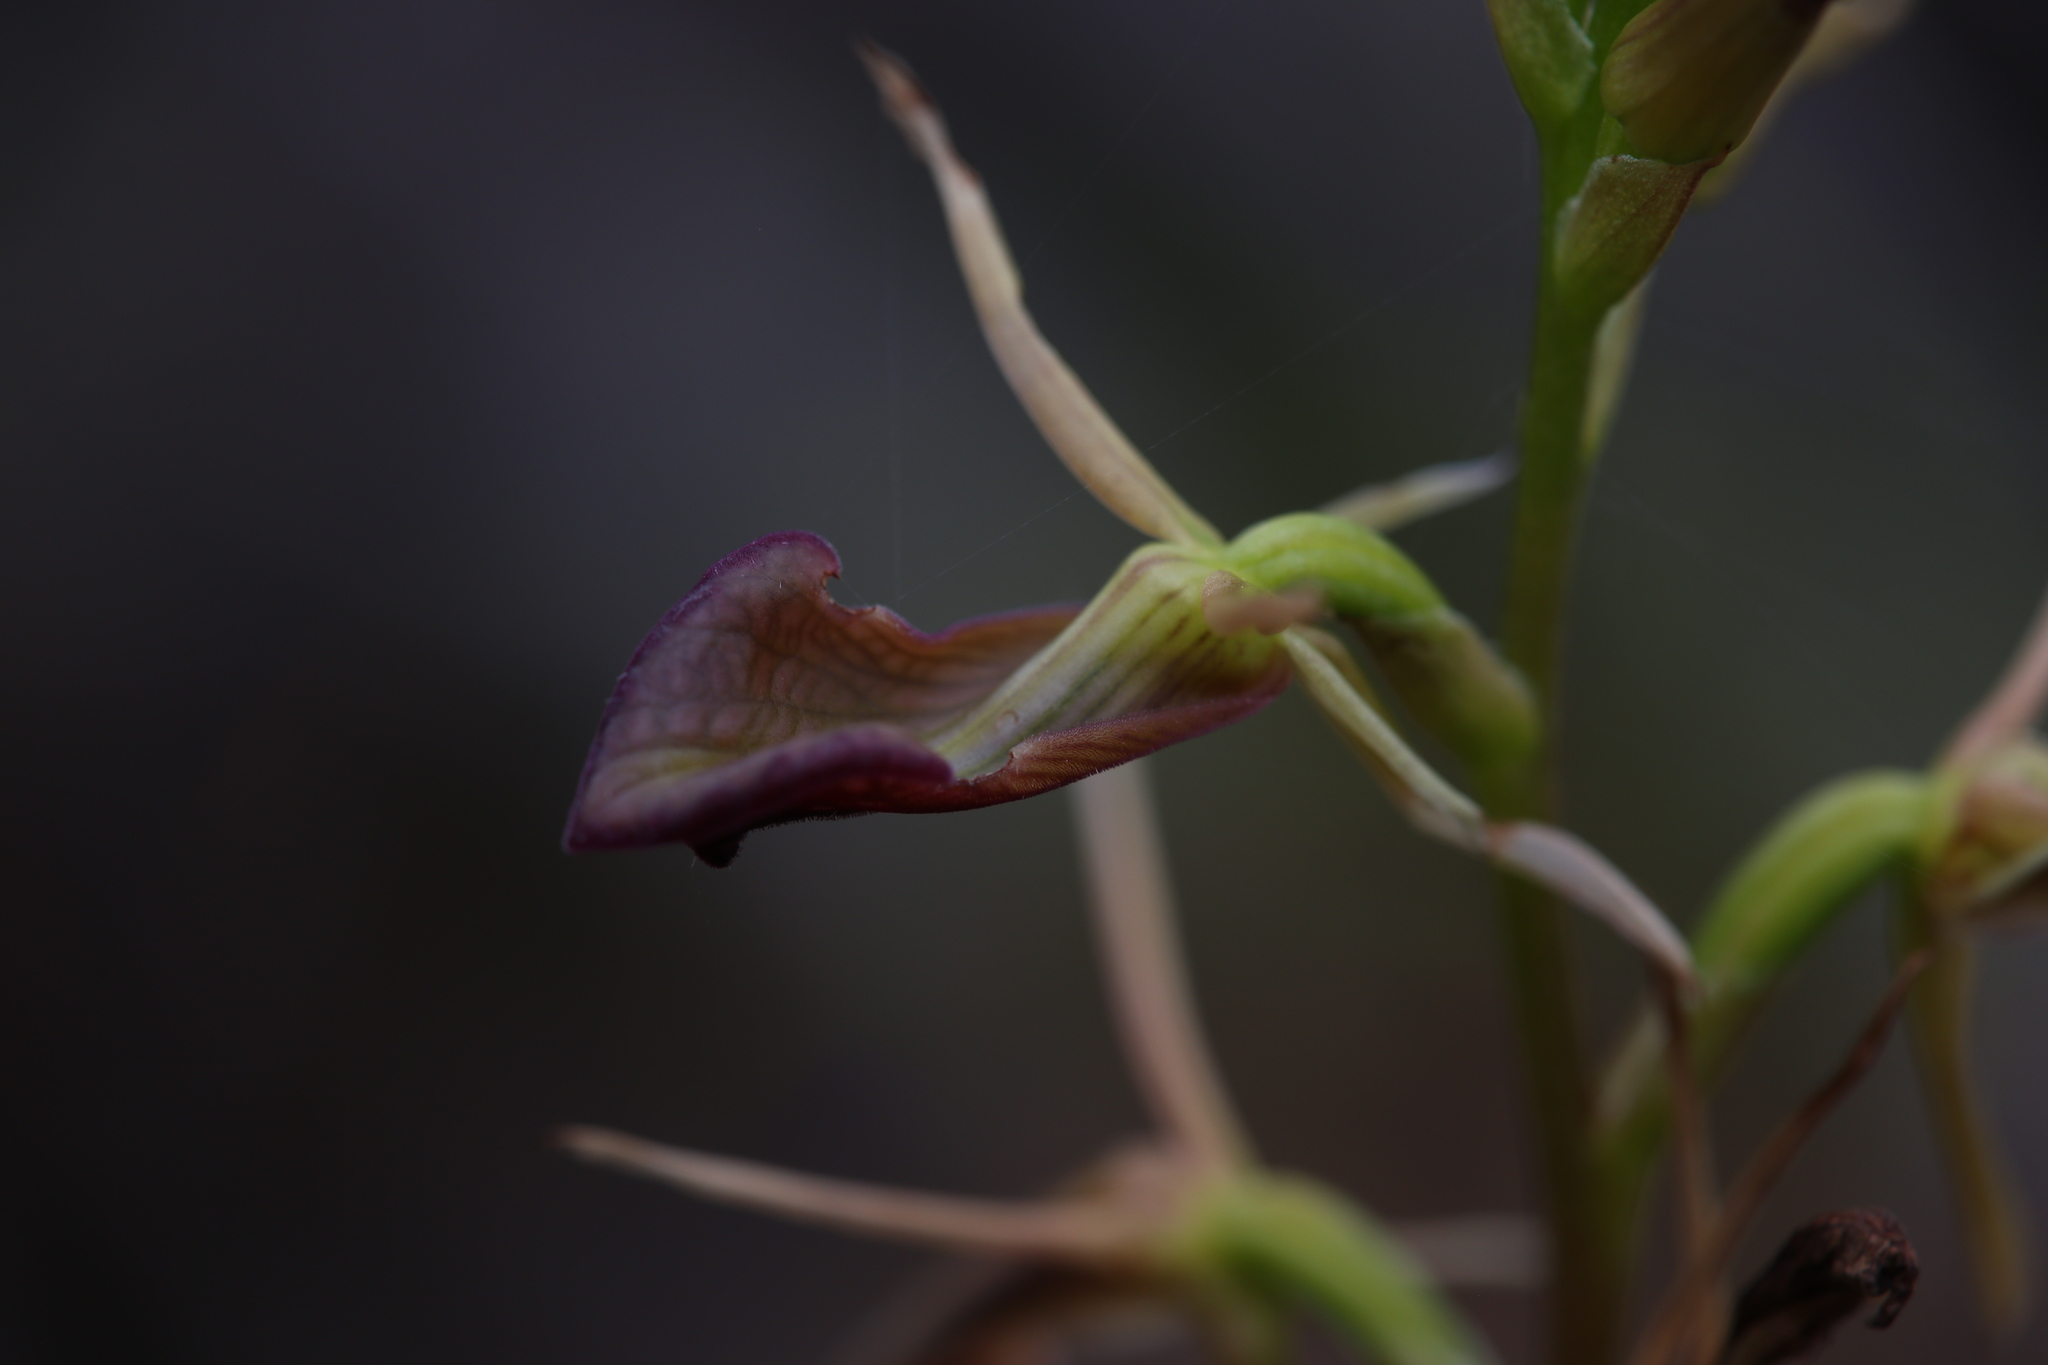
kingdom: Plantae
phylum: Tracheophyta
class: Liliopsida
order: Asparagales
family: Orchidaceae
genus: Cryptostylis
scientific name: Cryptostylis ovata
